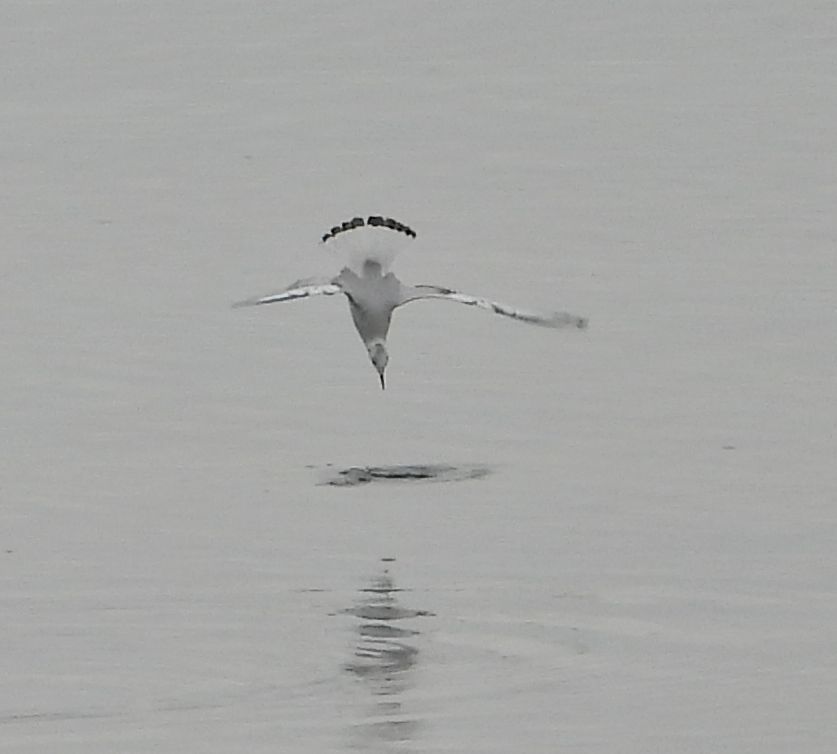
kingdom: Animalia
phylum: Chordata
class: Aves
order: Charadriiformes
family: Laridae
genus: Chroicocephalus
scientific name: Chroicocephalus philadelphia
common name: Bonaparte's gull
